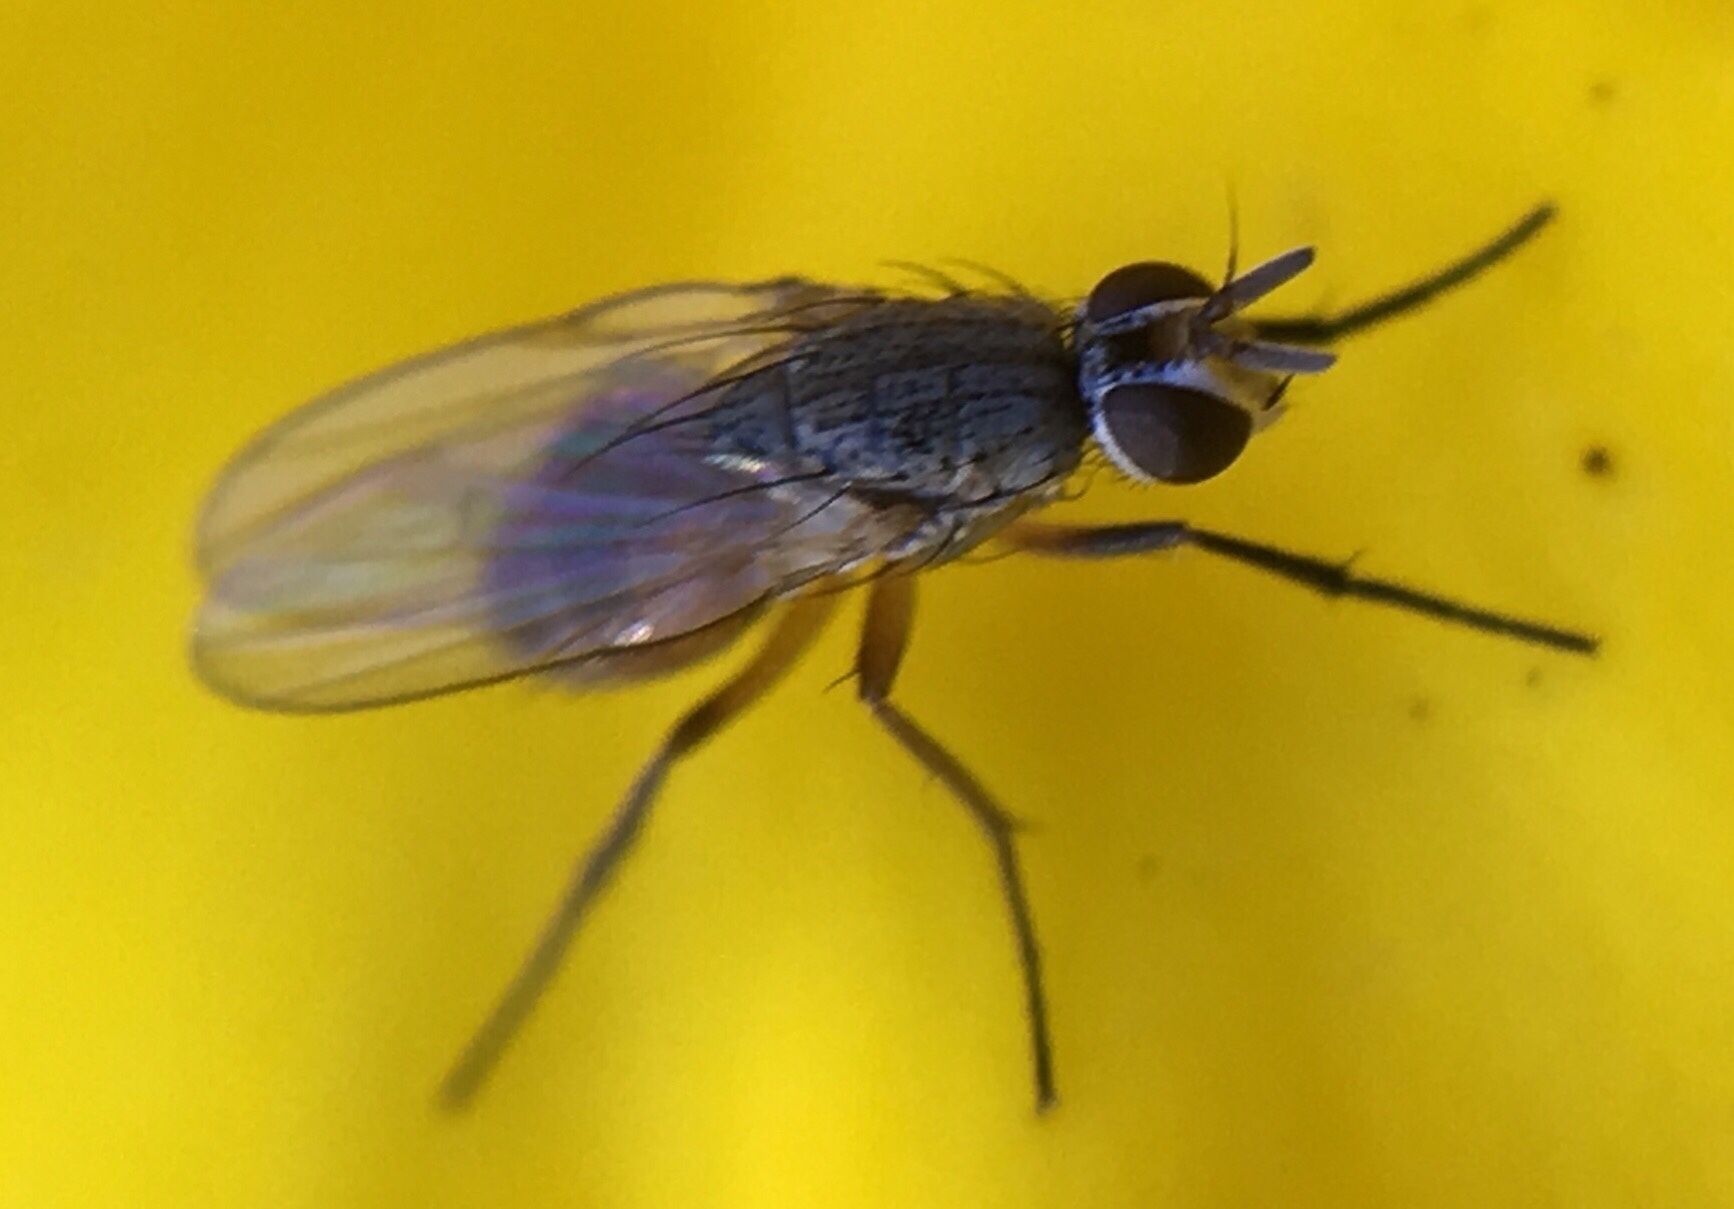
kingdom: Animalia
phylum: Arthropoda
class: Insecta
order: Diptera
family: Muscidae
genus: Atherigona
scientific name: Atherigona reversura
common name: Bermudagrass stem maggot
